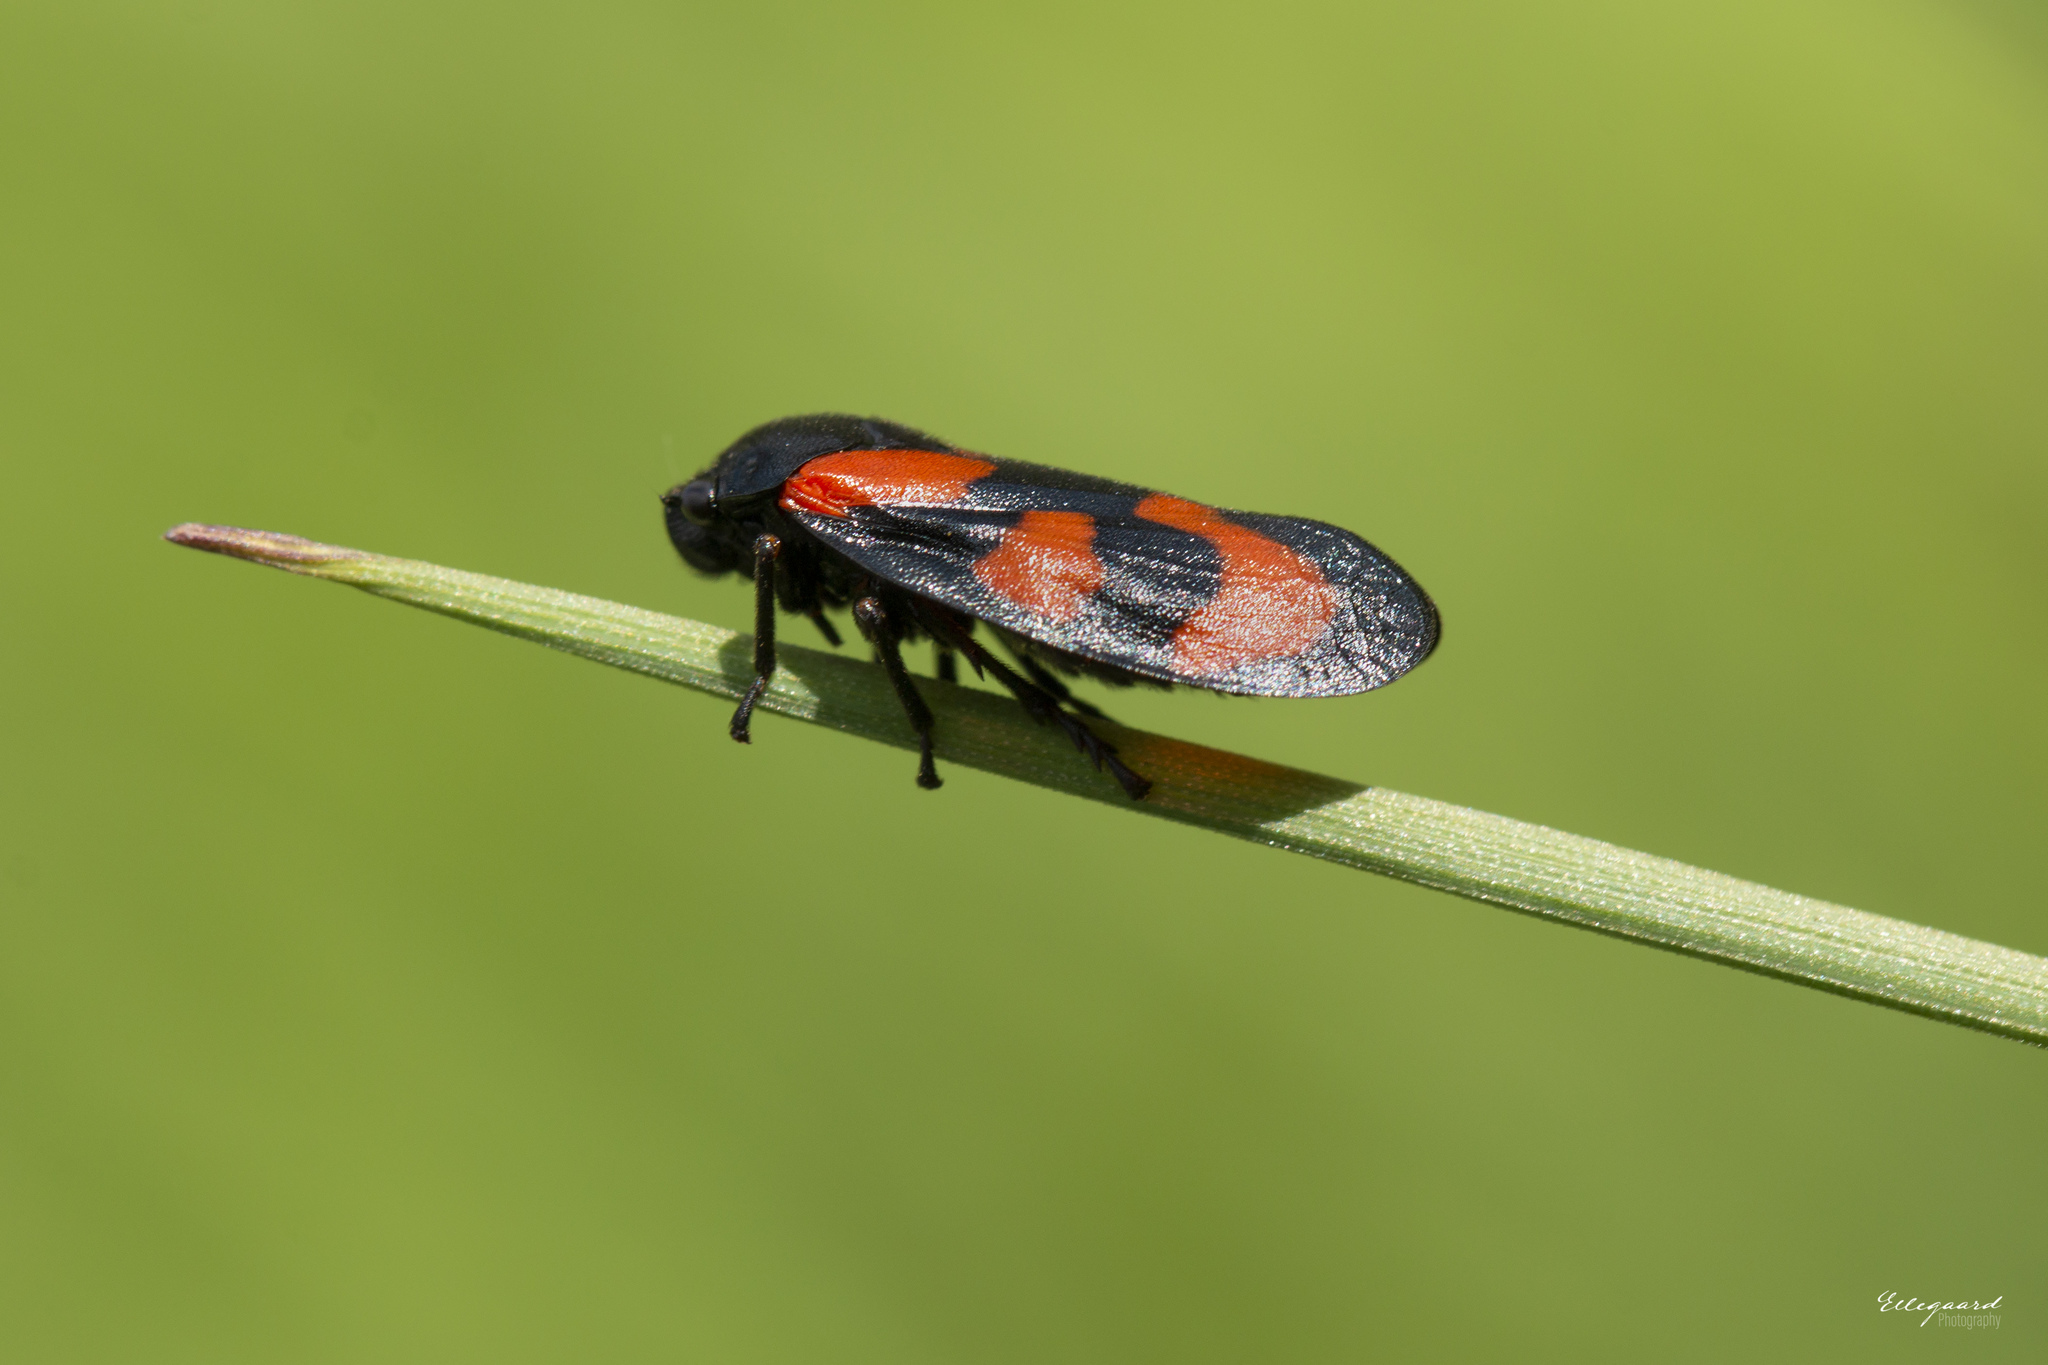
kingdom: Animalia
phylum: Arthropoda
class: Insecta
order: Hemiptera
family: Cercopidae
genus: Cercopis
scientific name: Cercopis vulnerata
